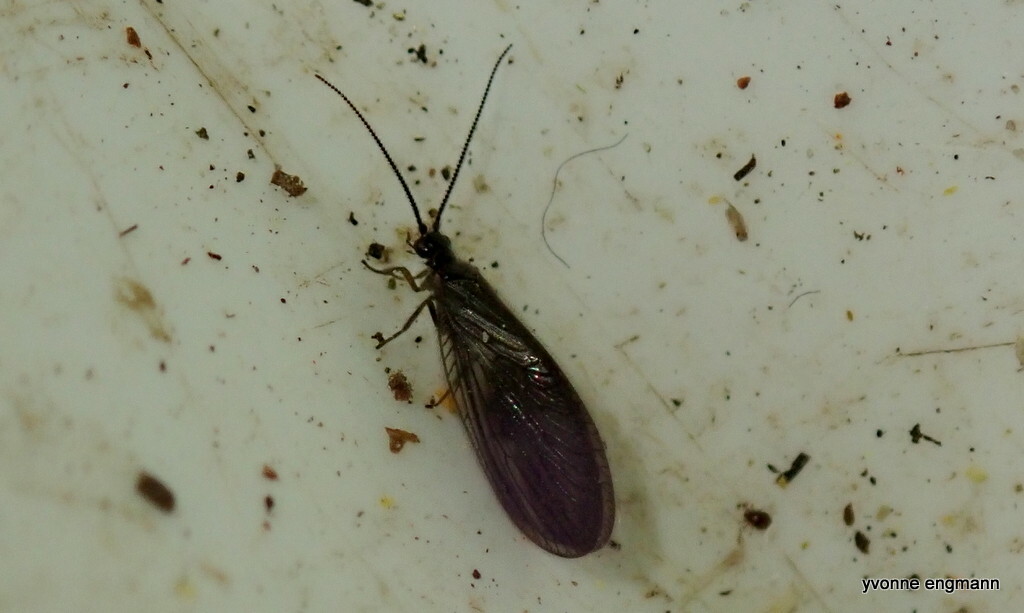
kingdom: Animalia
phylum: Arthropoda
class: Insecta
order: Neuroptera
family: Sisyridae
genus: Sisyra
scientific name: Sisyra nigra
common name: Black spongillafly
